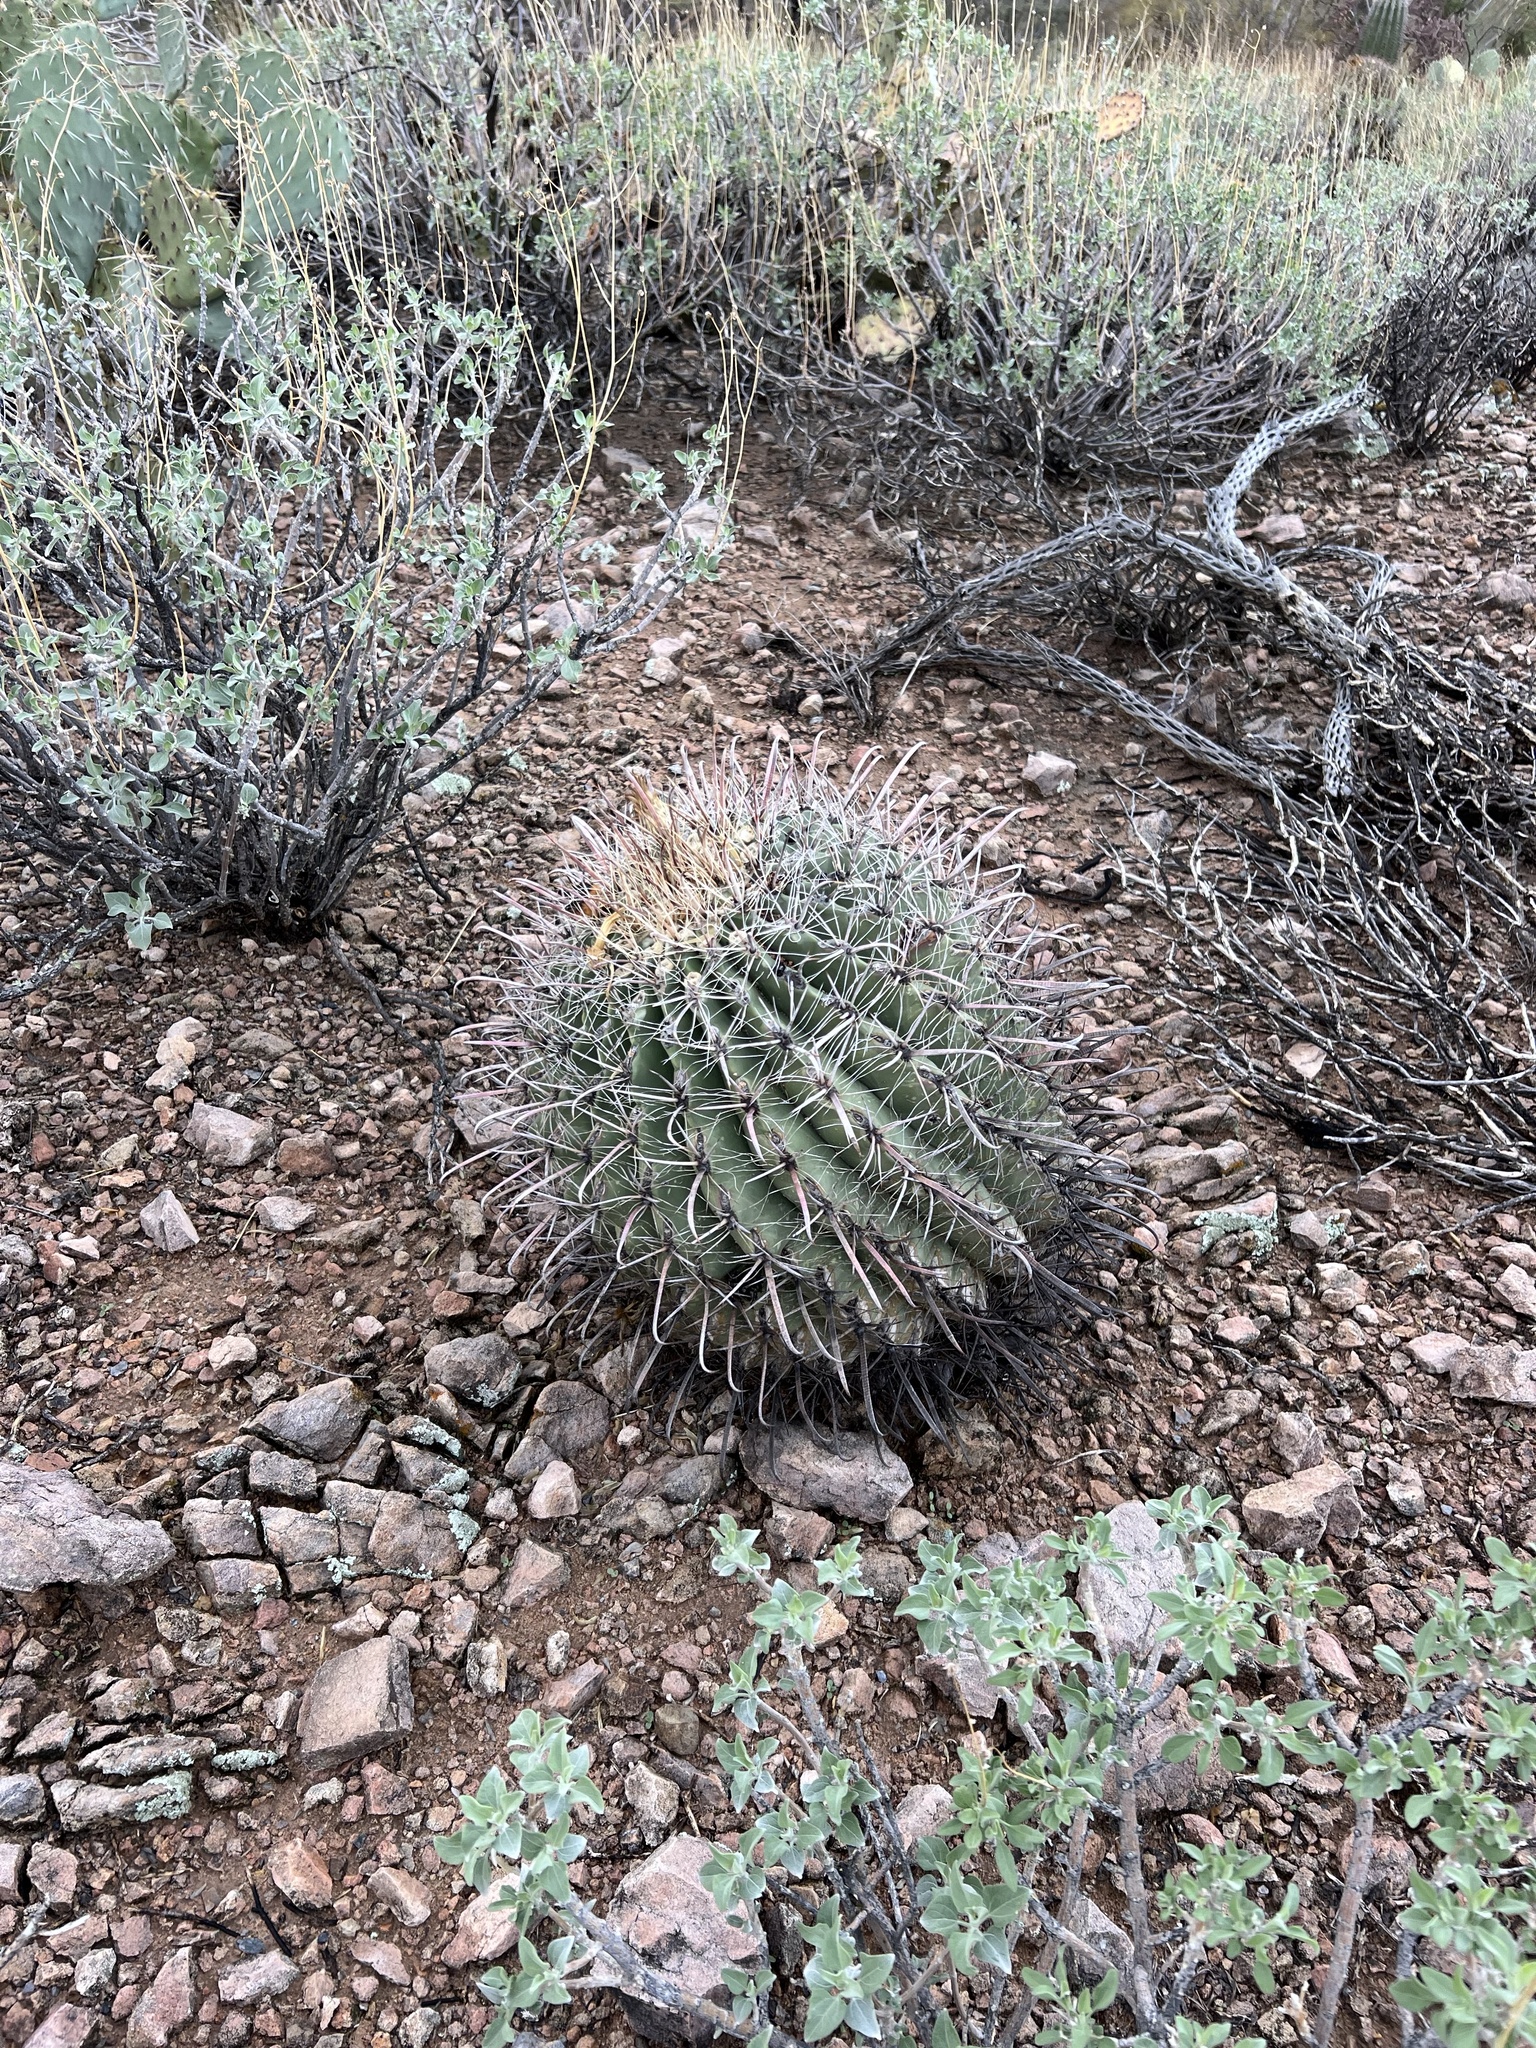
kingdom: Plantae
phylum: Tracheophyta
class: Magnoliopsida
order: Caryophyllales
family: Cactaceae
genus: Ferocactus
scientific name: Ferocactus wislizeni
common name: Candy barrel cactus
